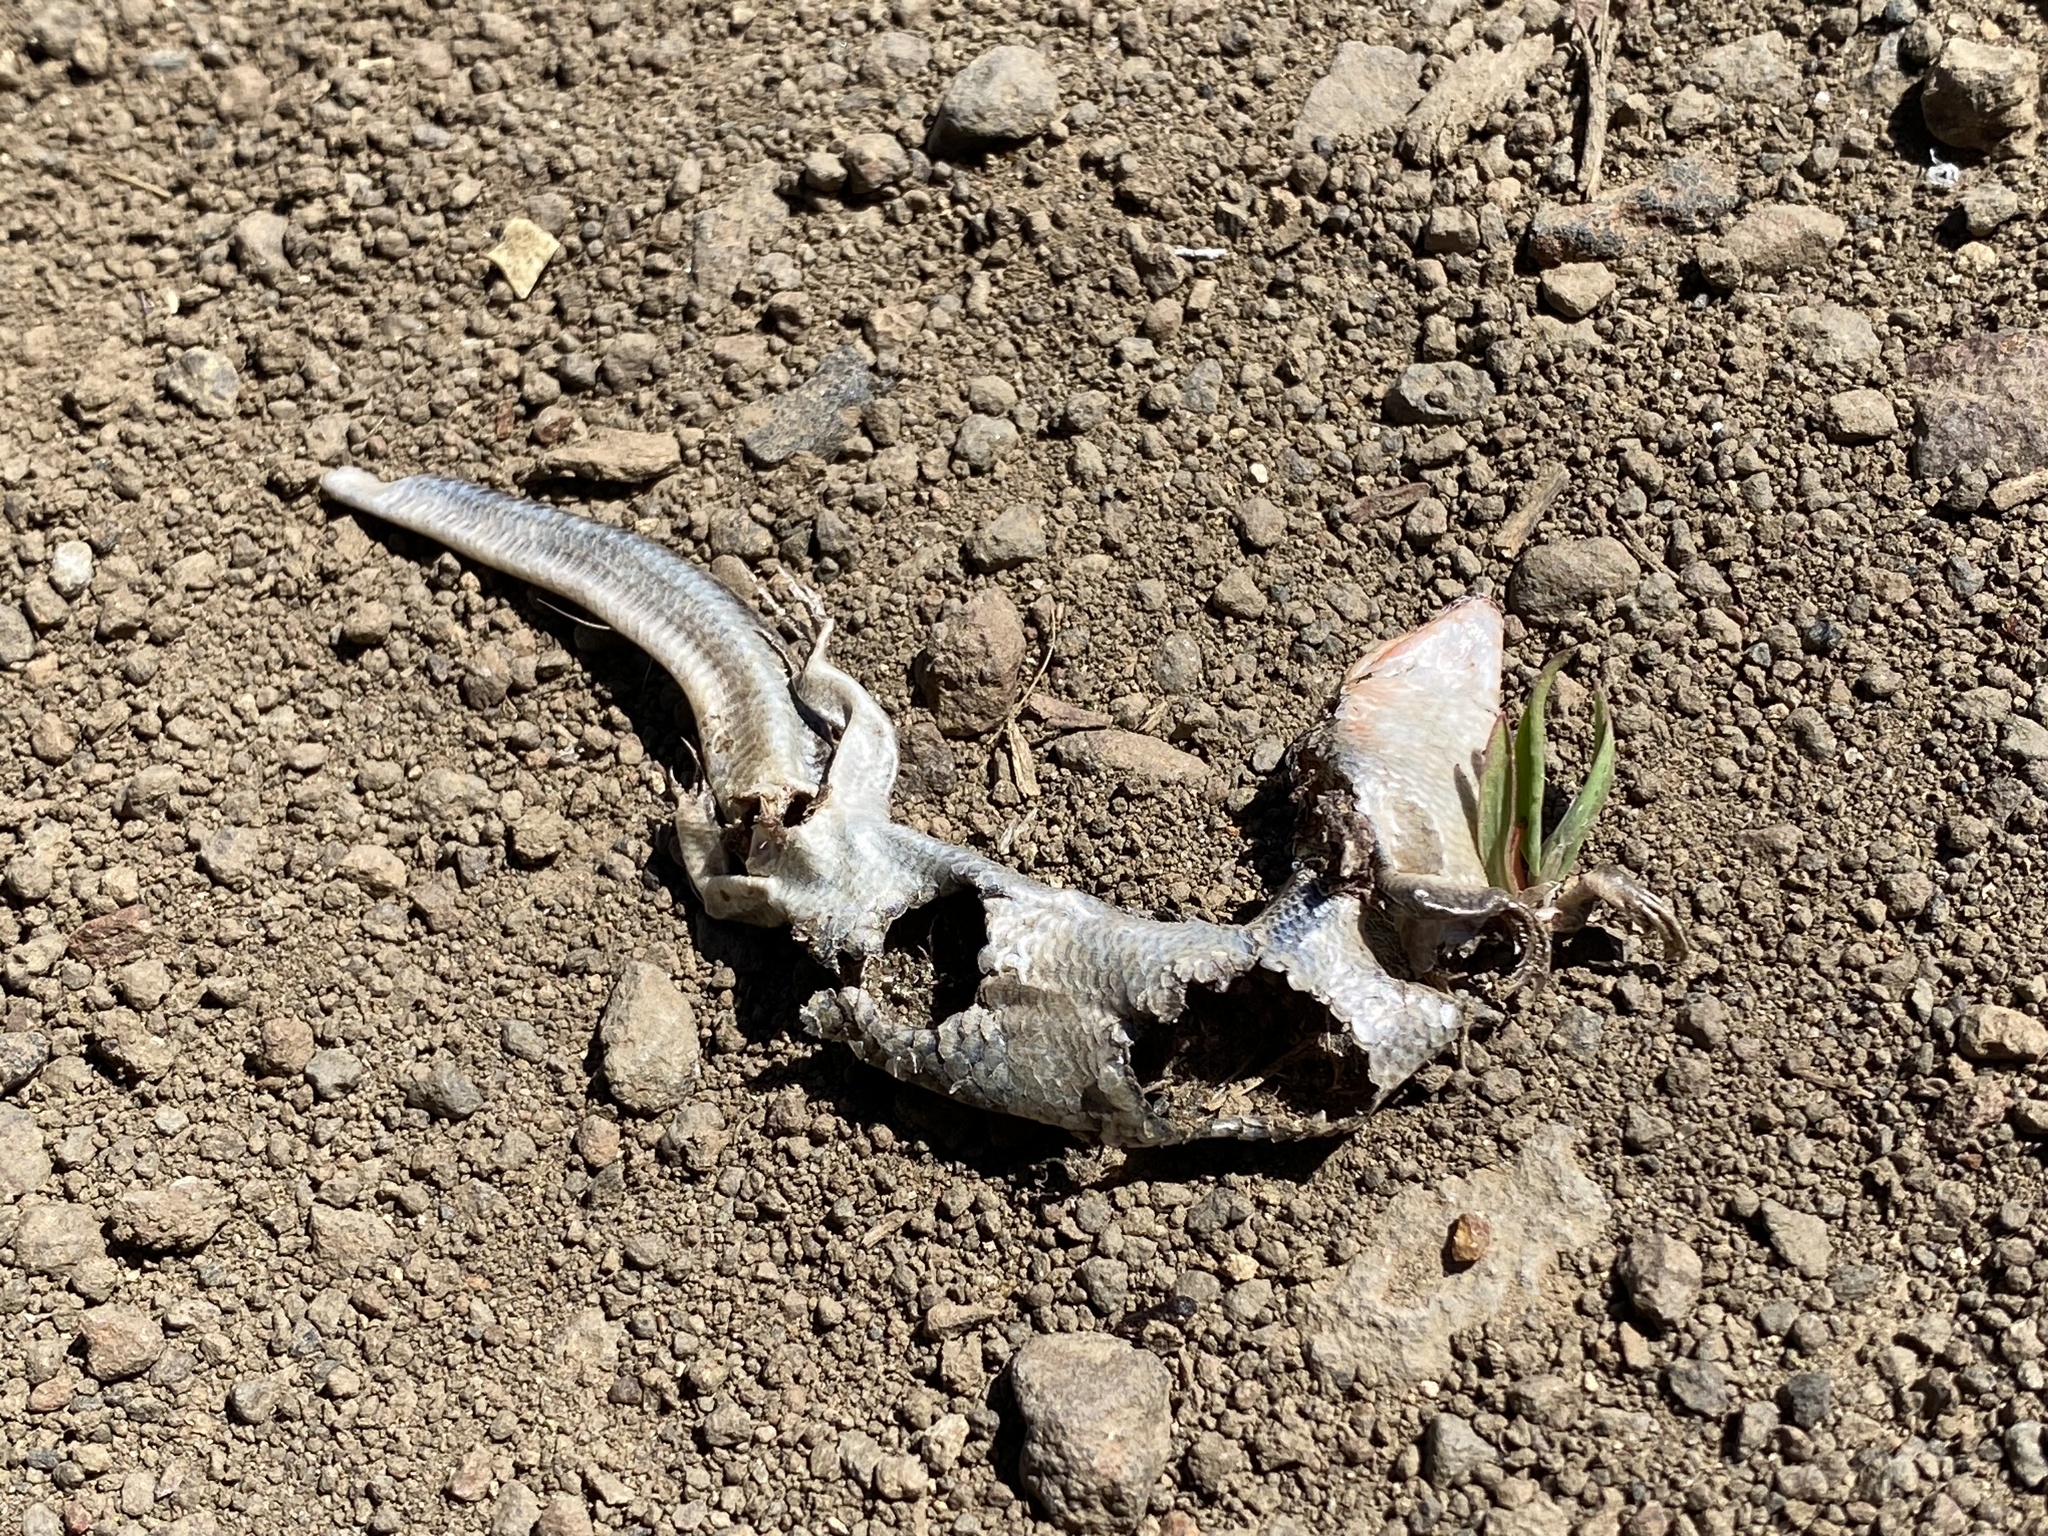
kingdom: Animalia
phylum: Chordata
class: Squamata
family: Scincidae
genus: Plestiodon
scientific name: Plestiodon skiltonianus
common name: Coronado island skink [interparietalis]
